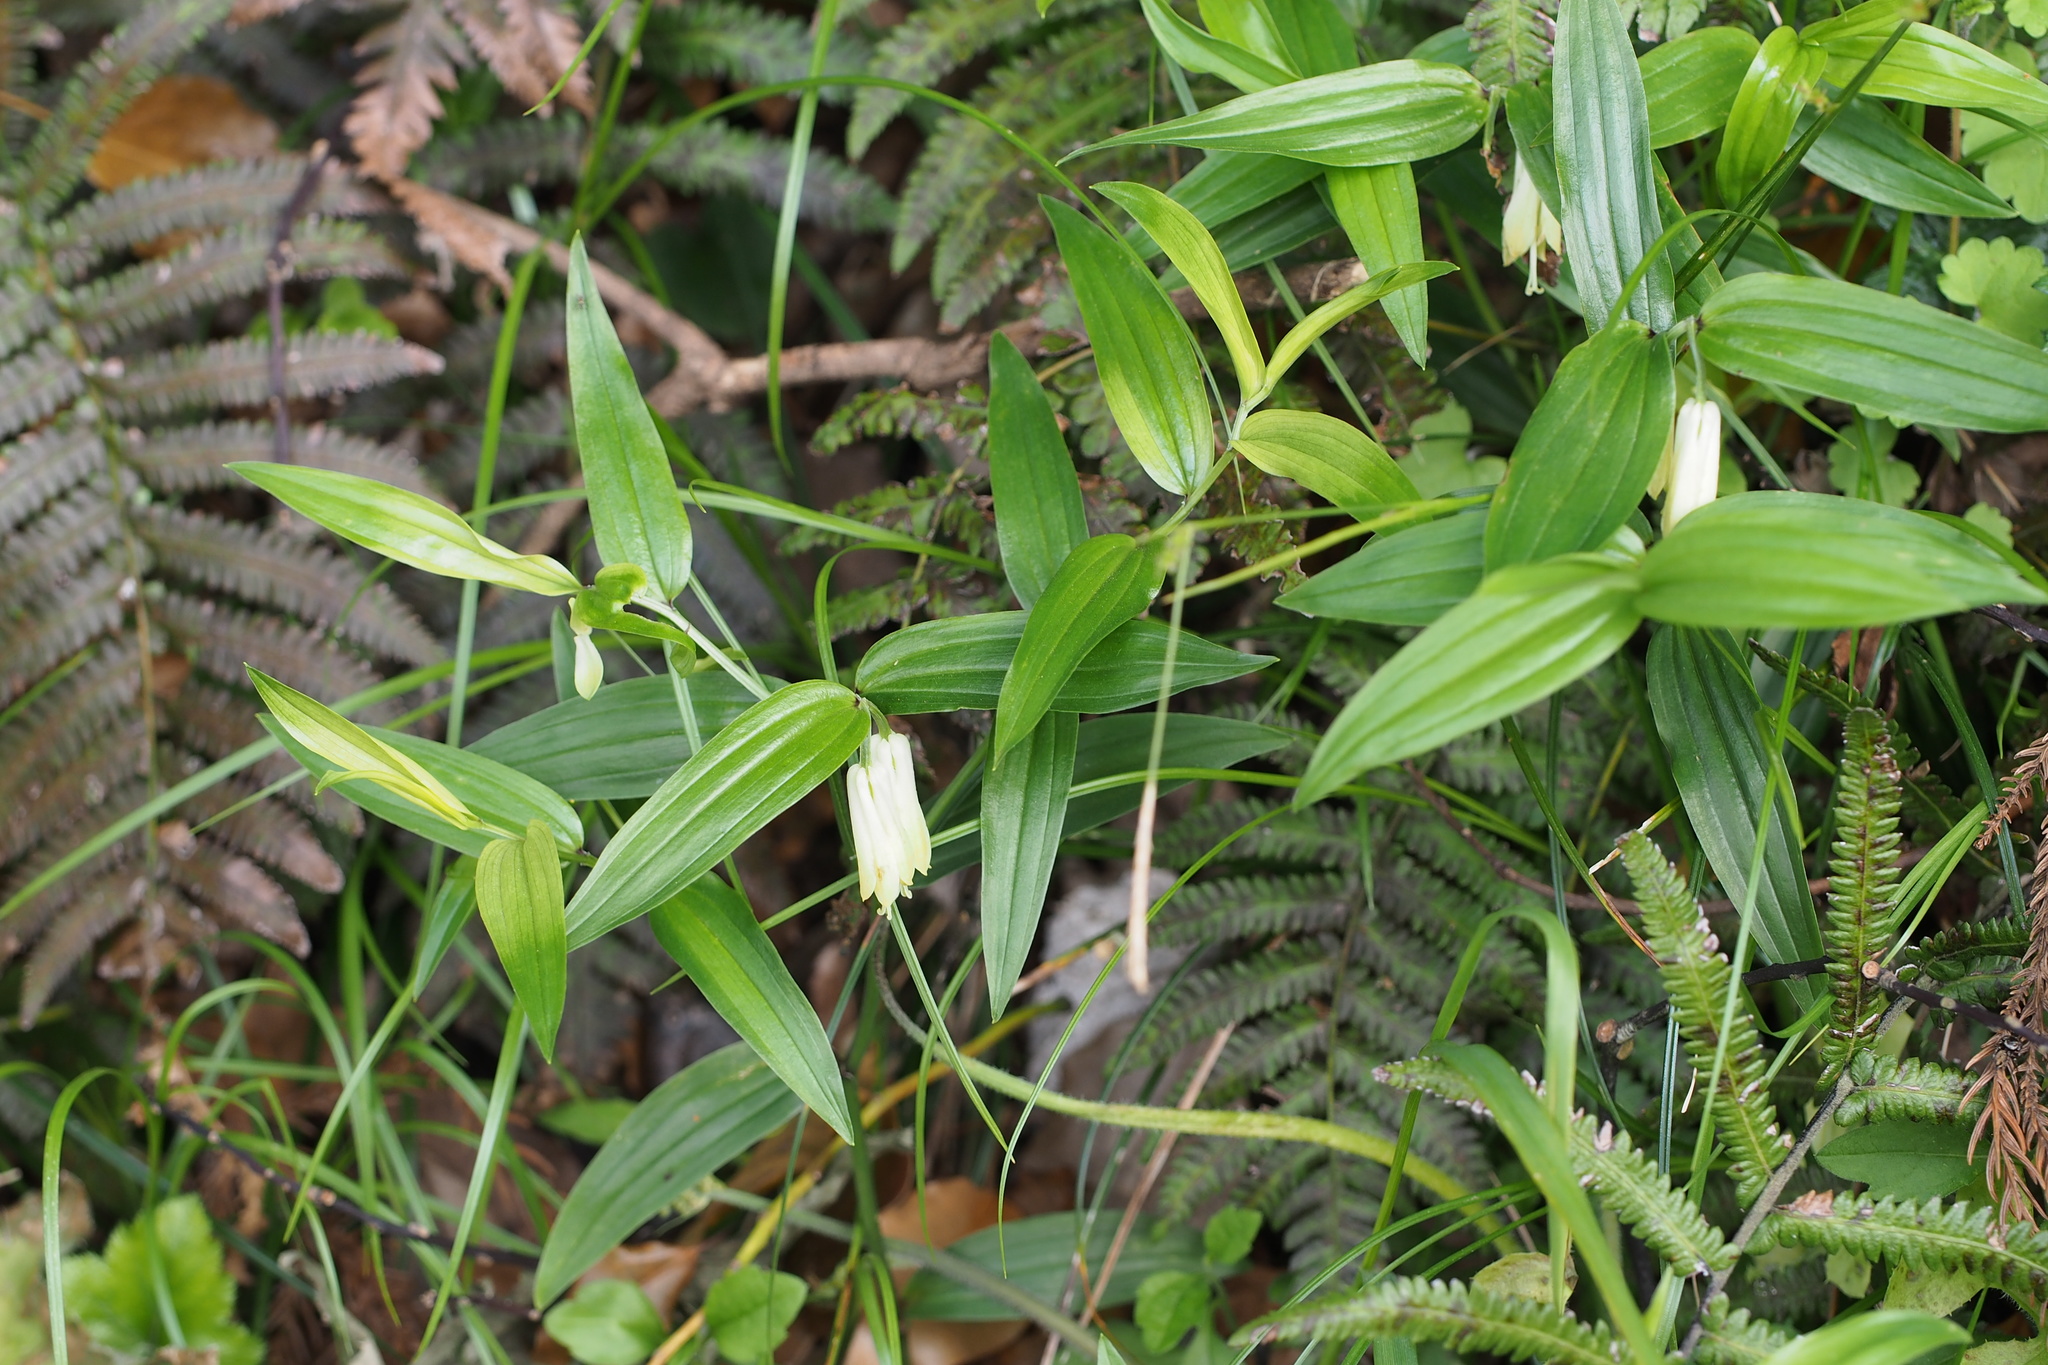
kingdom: Plantae
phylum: Tracheophyta
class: Liliopsida
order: Liliales
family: Colchicaceae
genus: Disporum
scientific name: Disporum sessile
